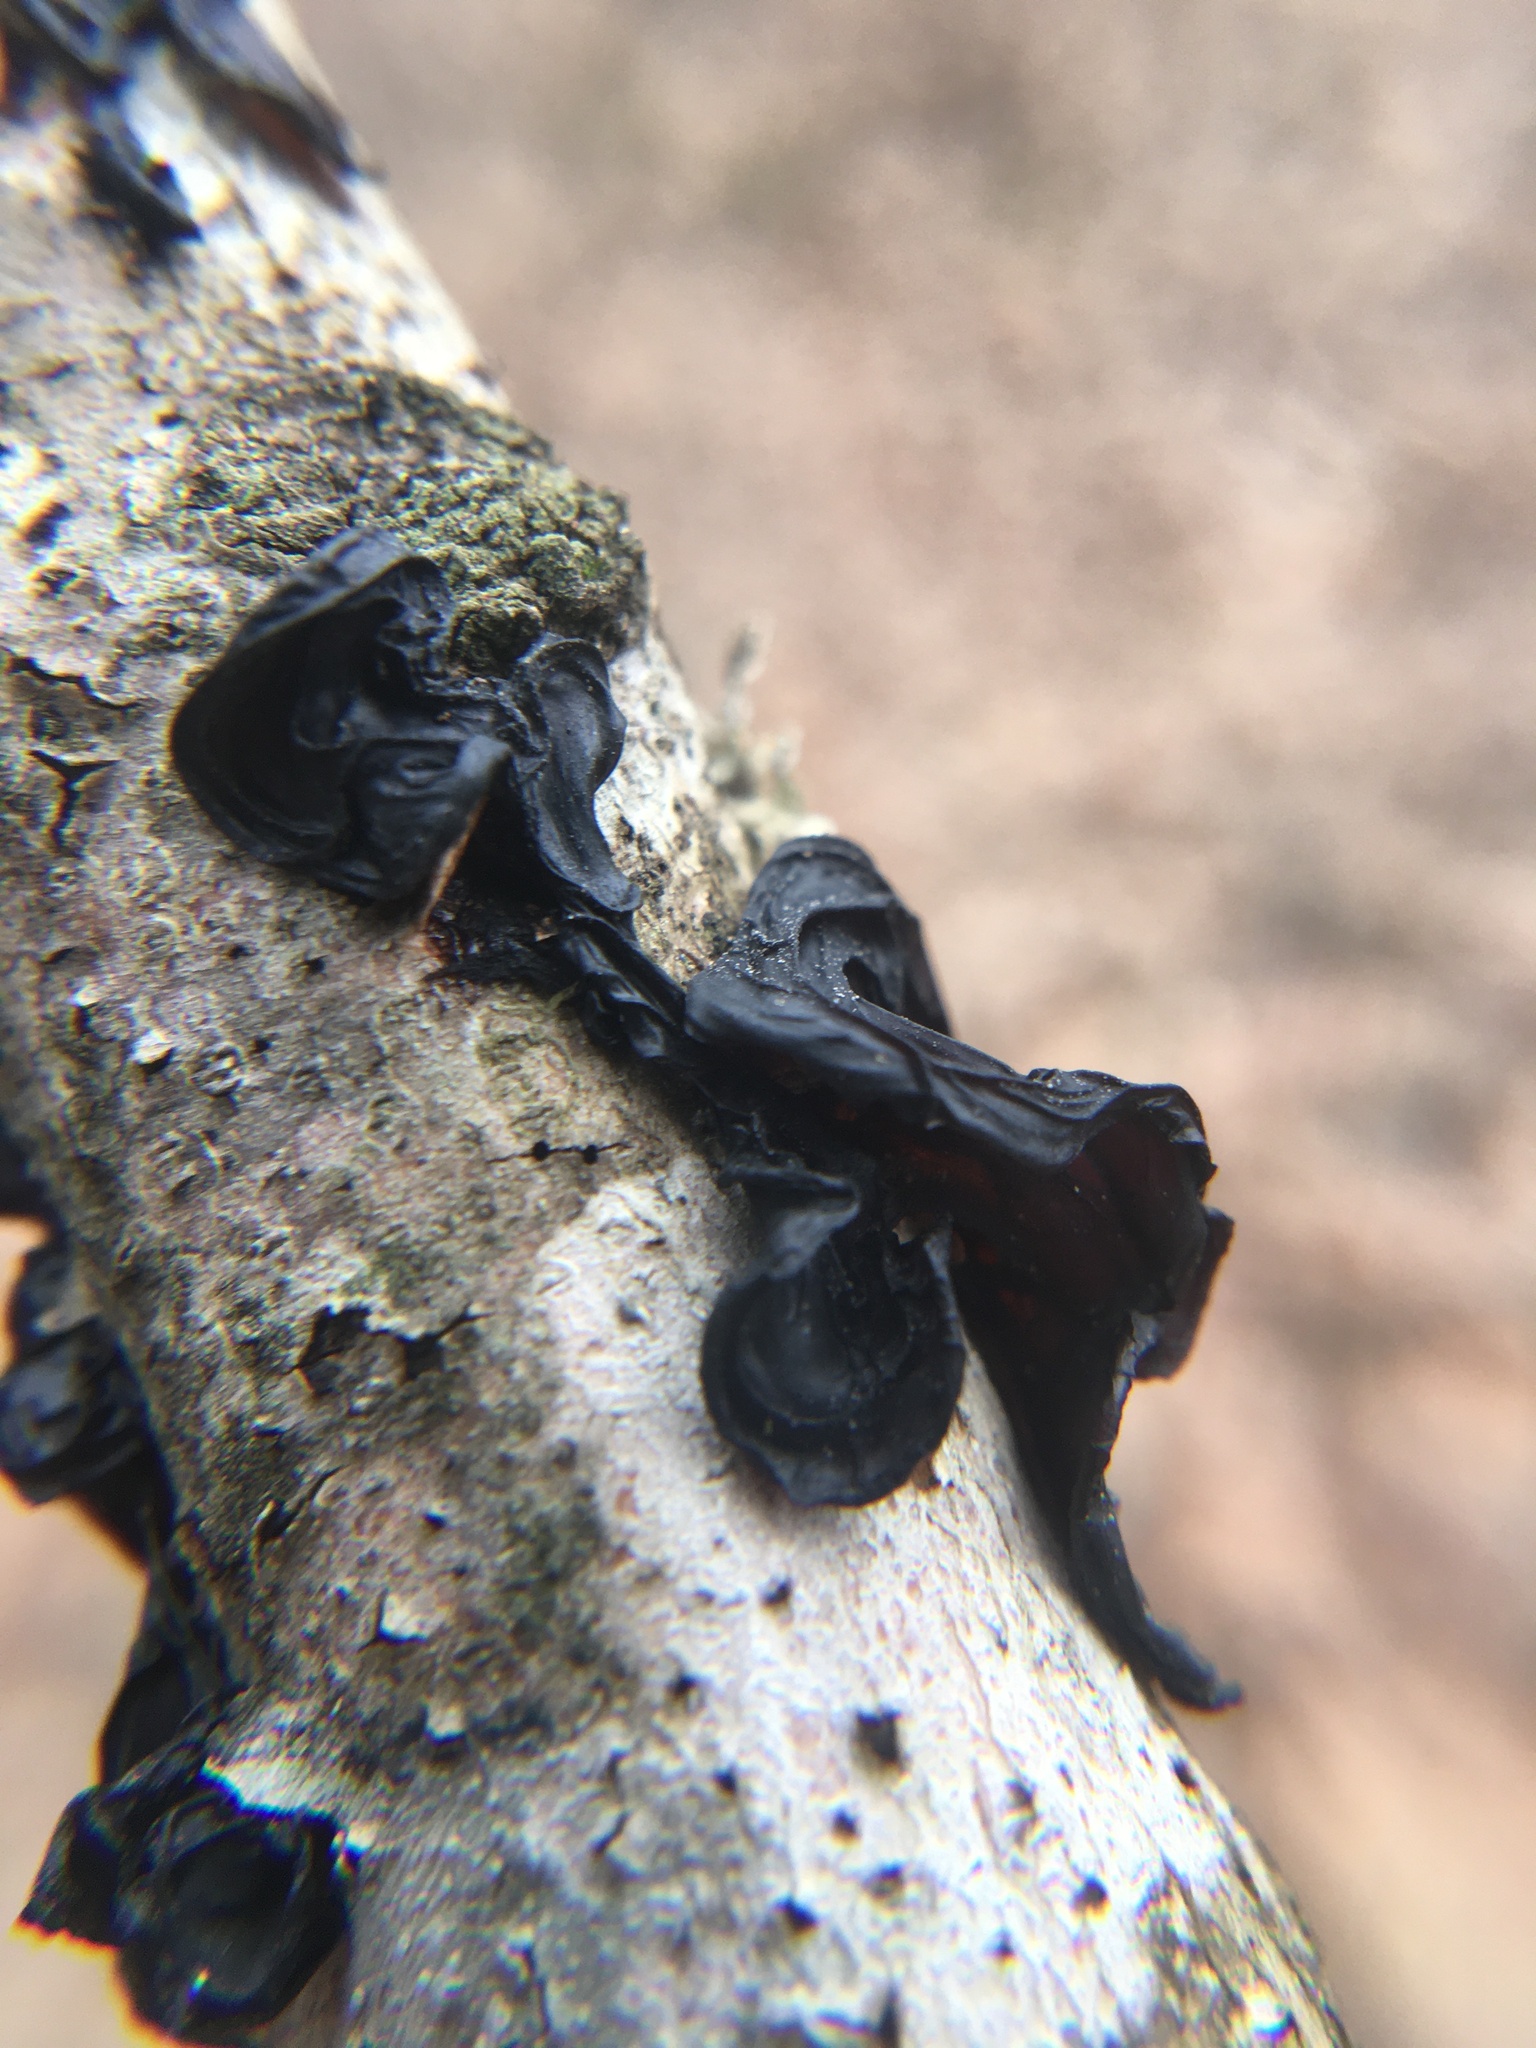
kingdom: Fungi
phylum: Basidiomycota
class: Agaricomycetes
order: Auriculariales
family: Auriculariaceae
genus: Exidia
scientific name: Exidia
